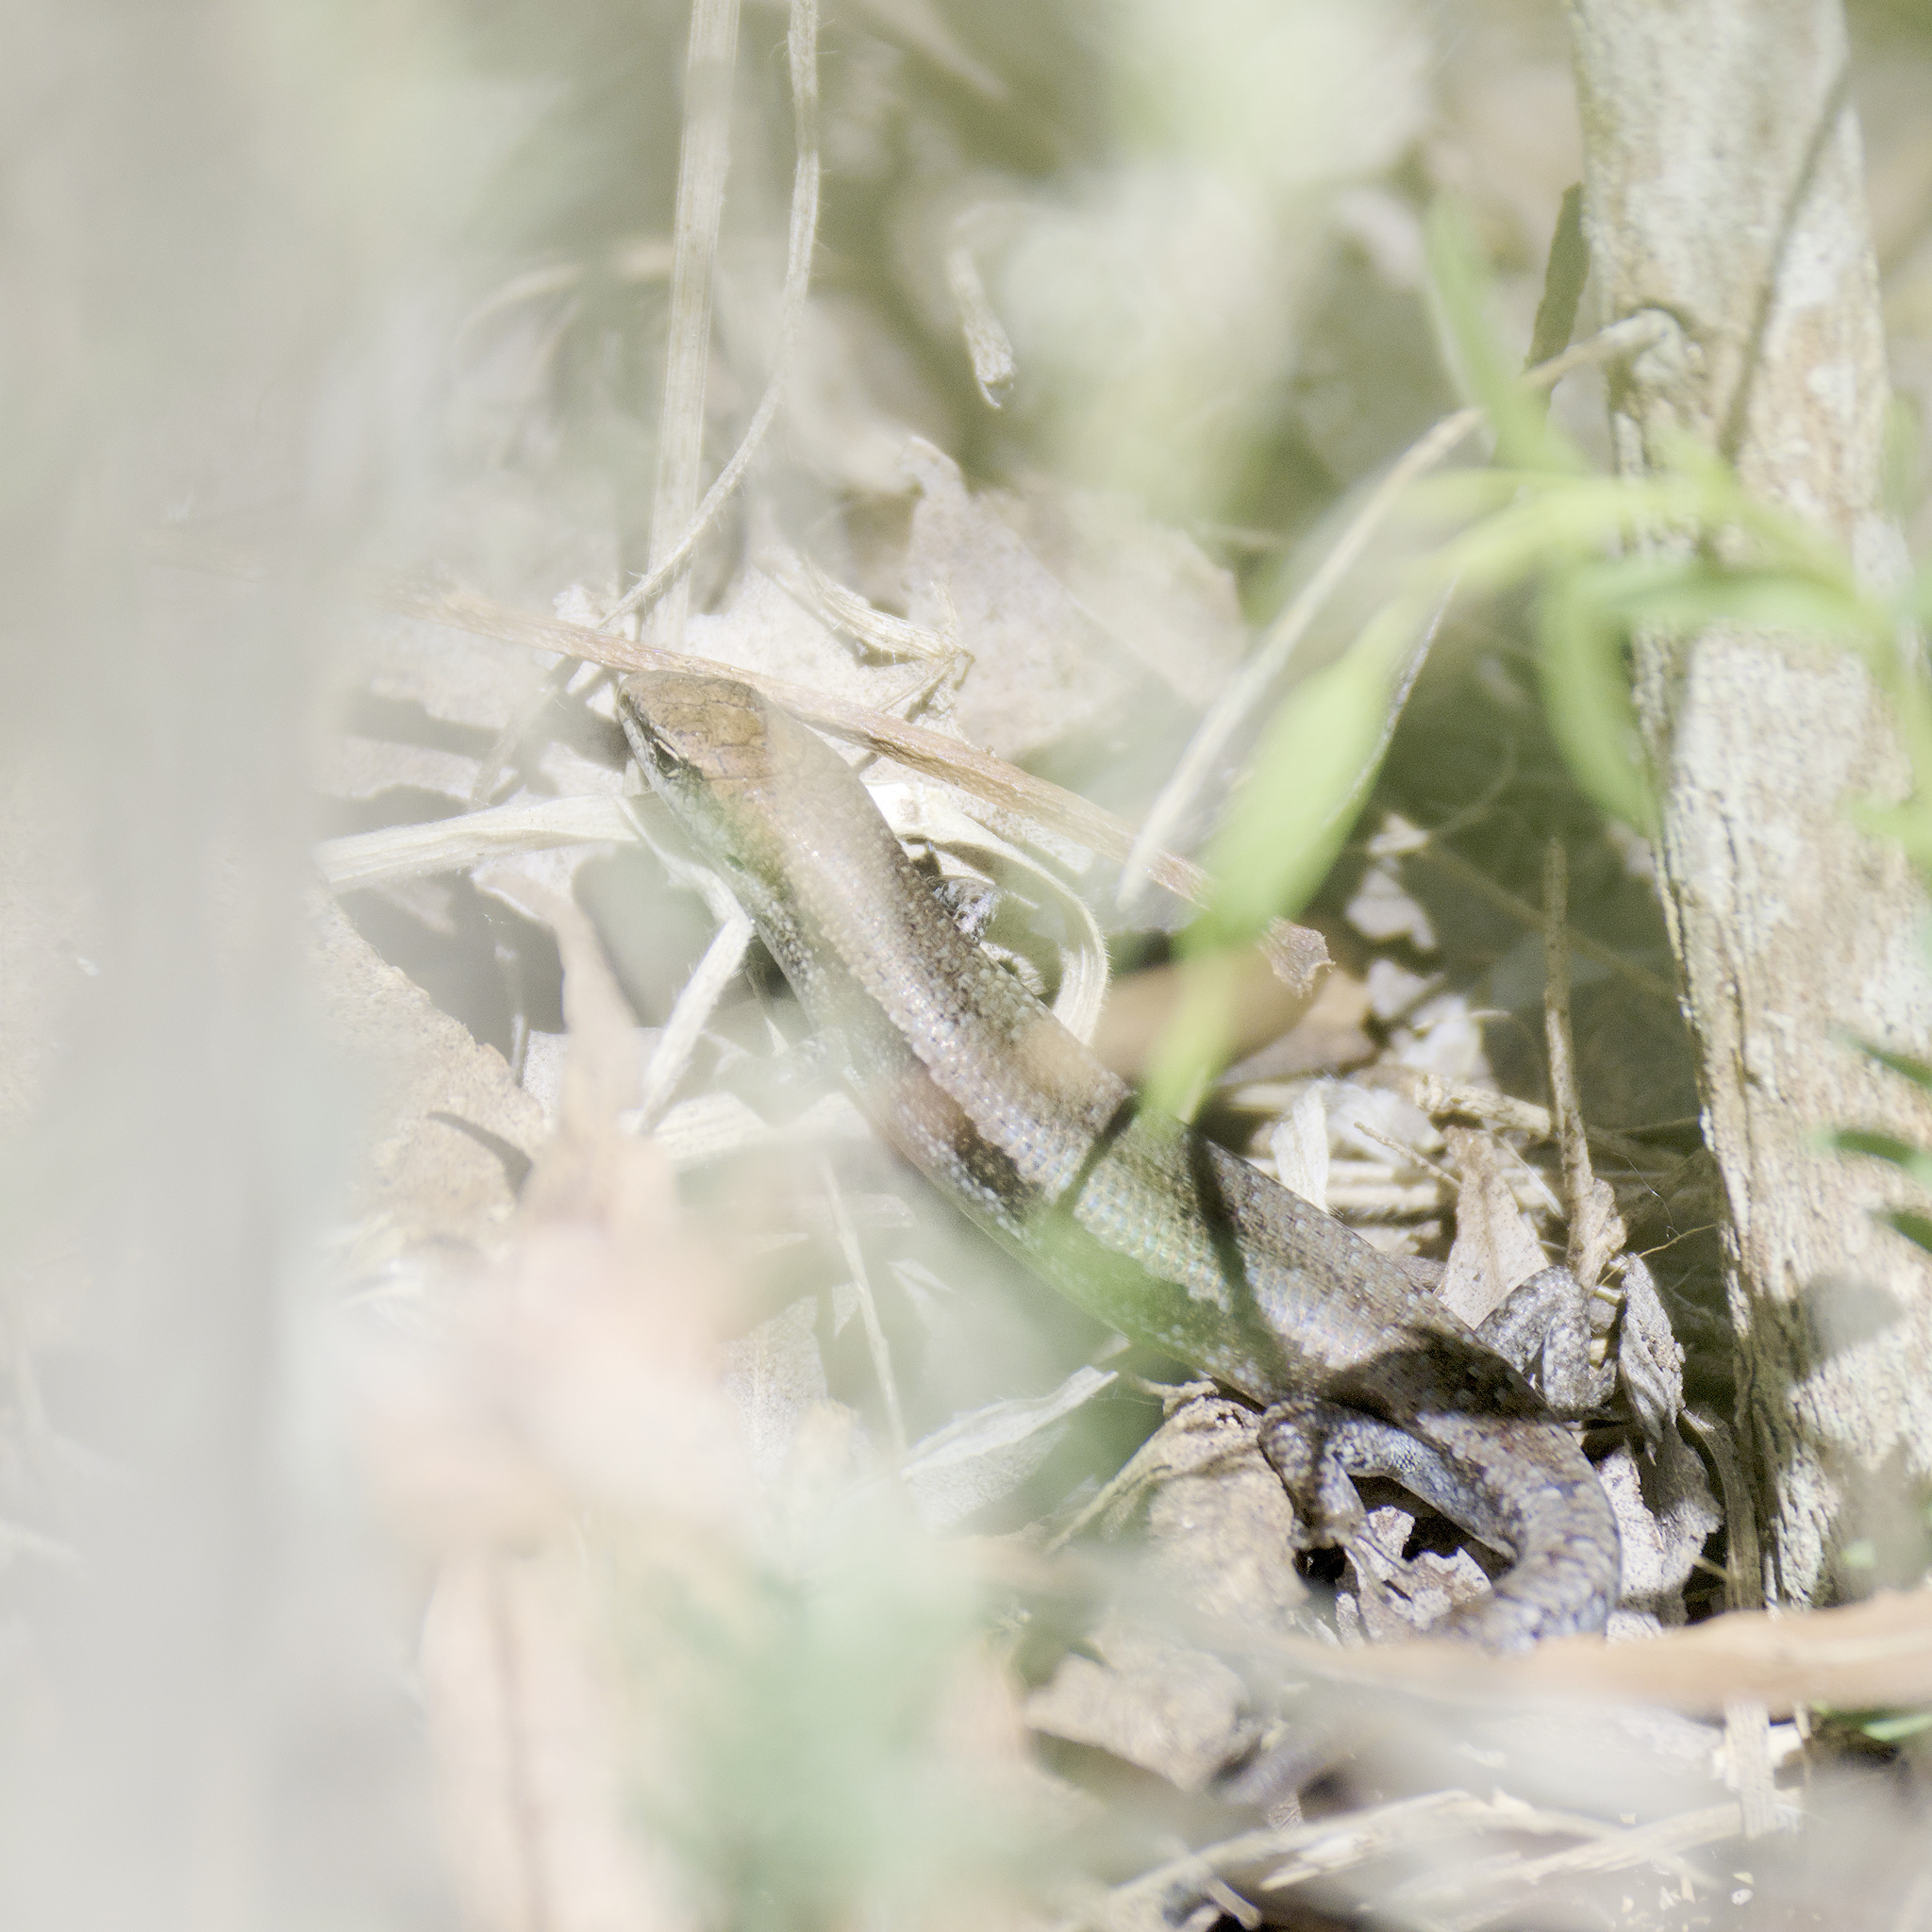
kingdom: Animalia
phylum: Chordata
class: Squamata
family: Scincidae
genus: Lampropholis
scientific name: Lampropholis guichenoti
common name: Garden skink
